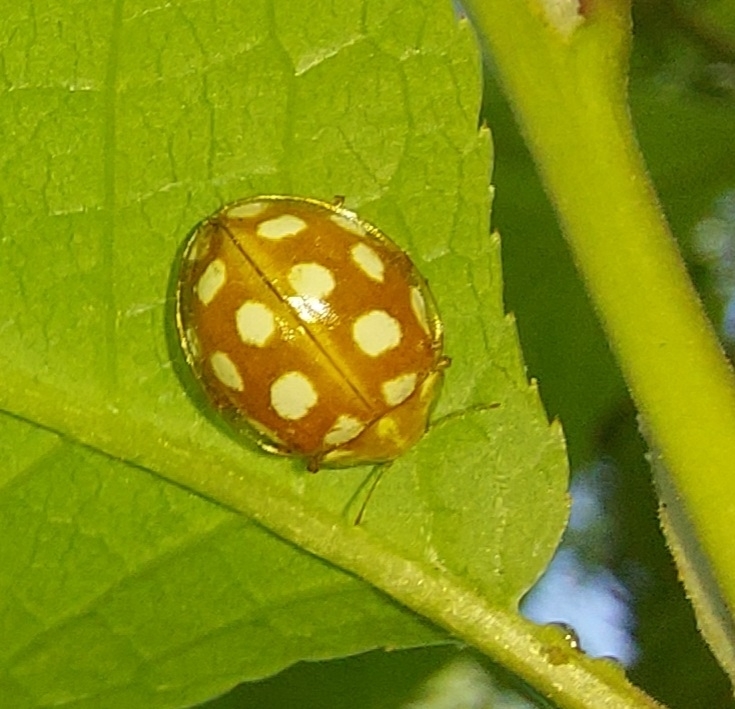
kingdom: Animalia
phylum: Arthropoda
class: Insecta
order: Coleoptera
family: Coccinellidae
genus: Halyzia
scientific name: Halyzia sedecimguttata
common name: Orange ladybird
